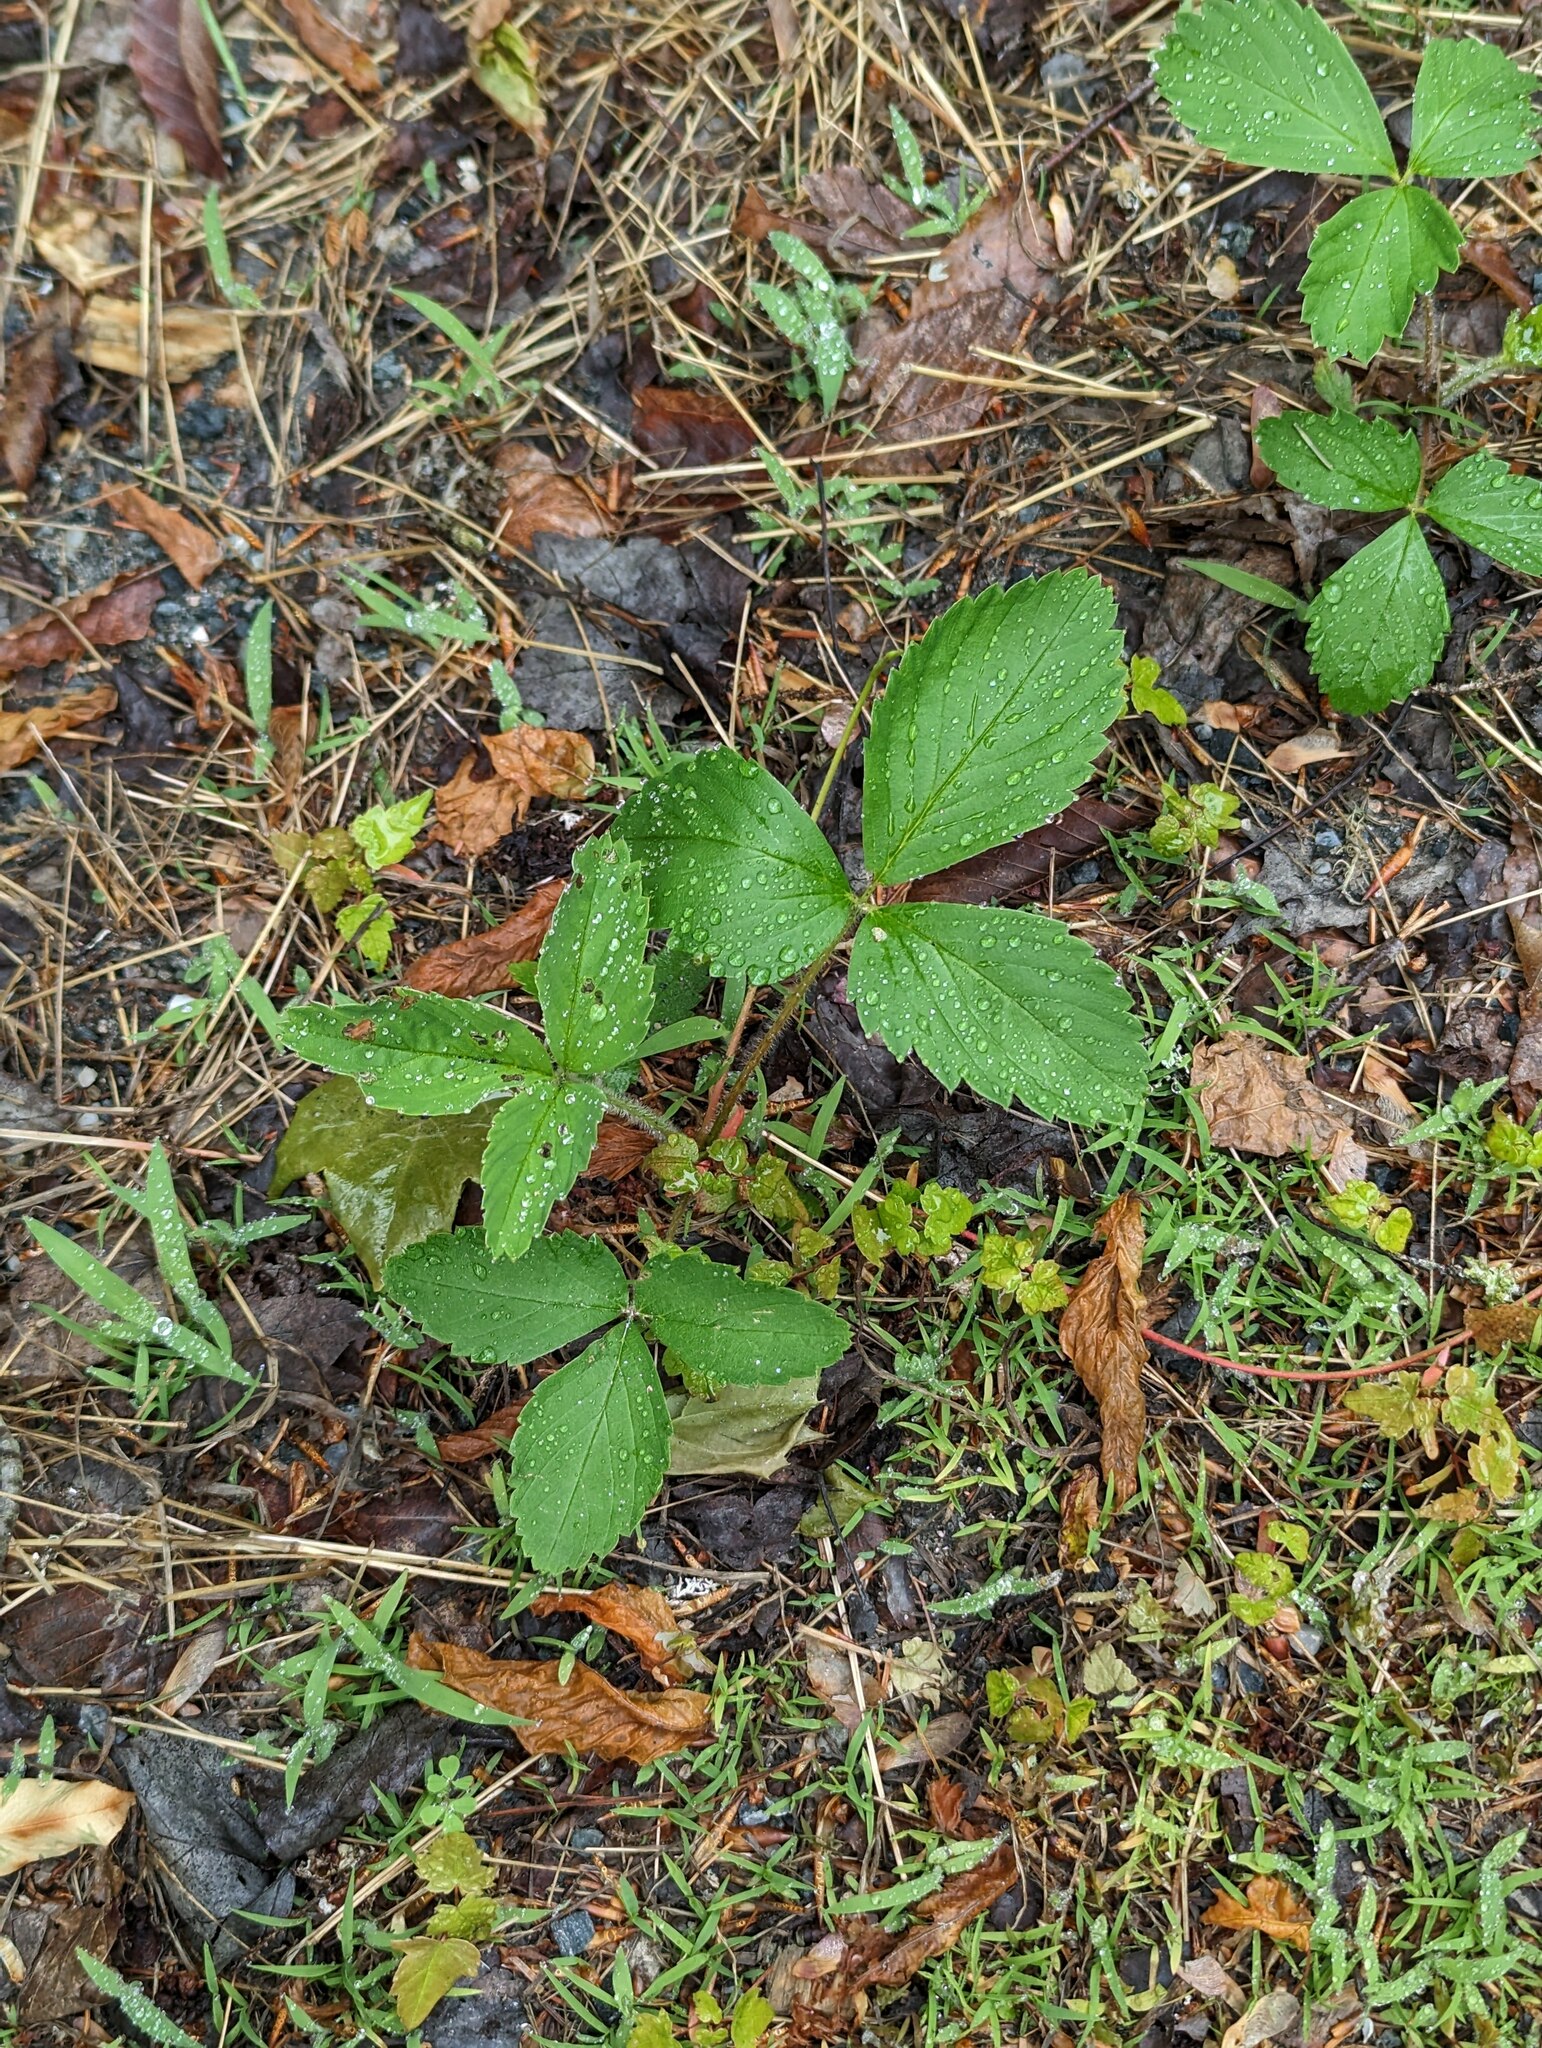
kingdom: Plantae
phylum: Tracheophyta
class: Magnoliopsida
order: Rosales
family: Rosaceae
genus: Fragaria
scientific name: Fragaria virginiana
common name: Thickleaved wild strawberry
